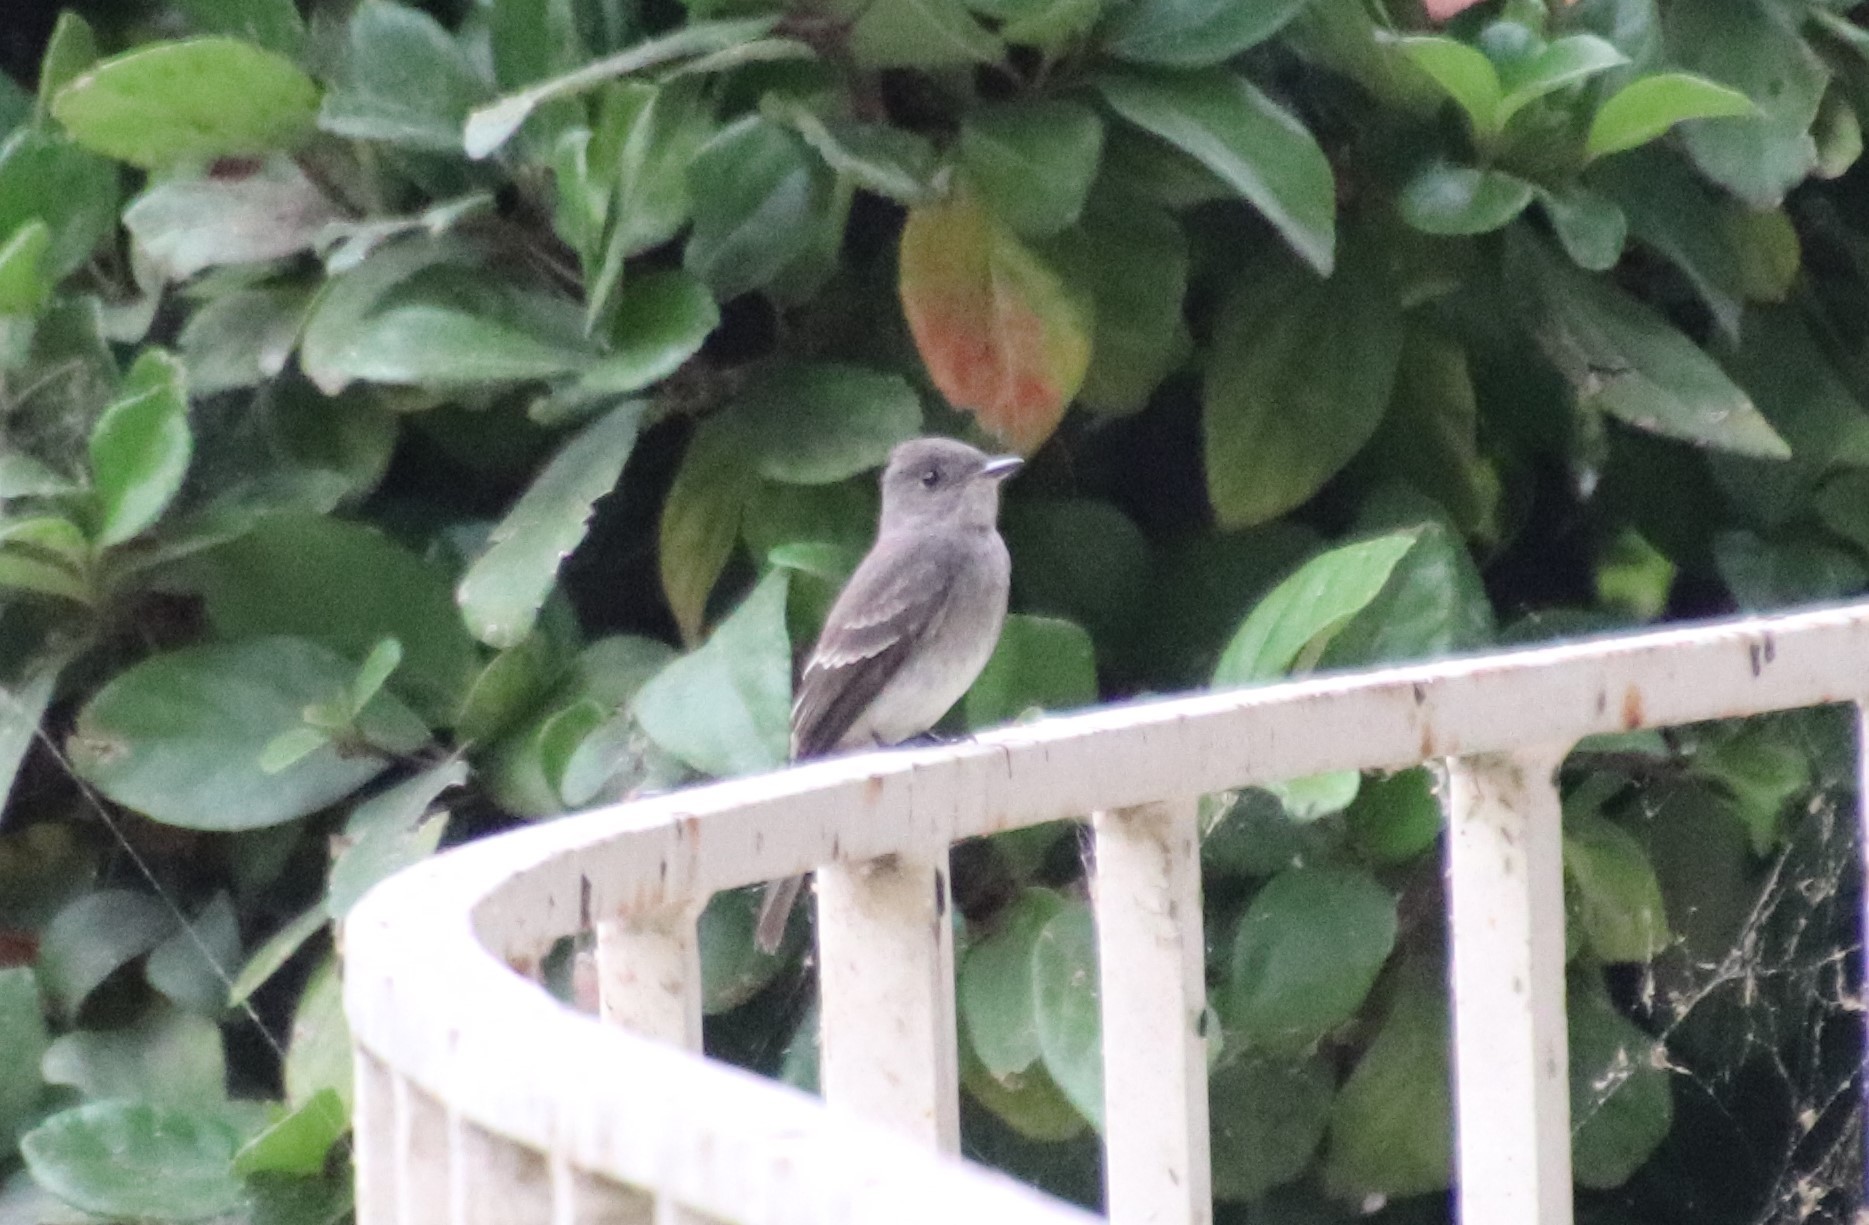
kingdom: Animalia
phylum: Chordata
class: Aves
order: Passeriformes
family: Tyrannidae
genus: Contopus
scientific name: Contopus sordidulus
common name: Western wood-pewee
